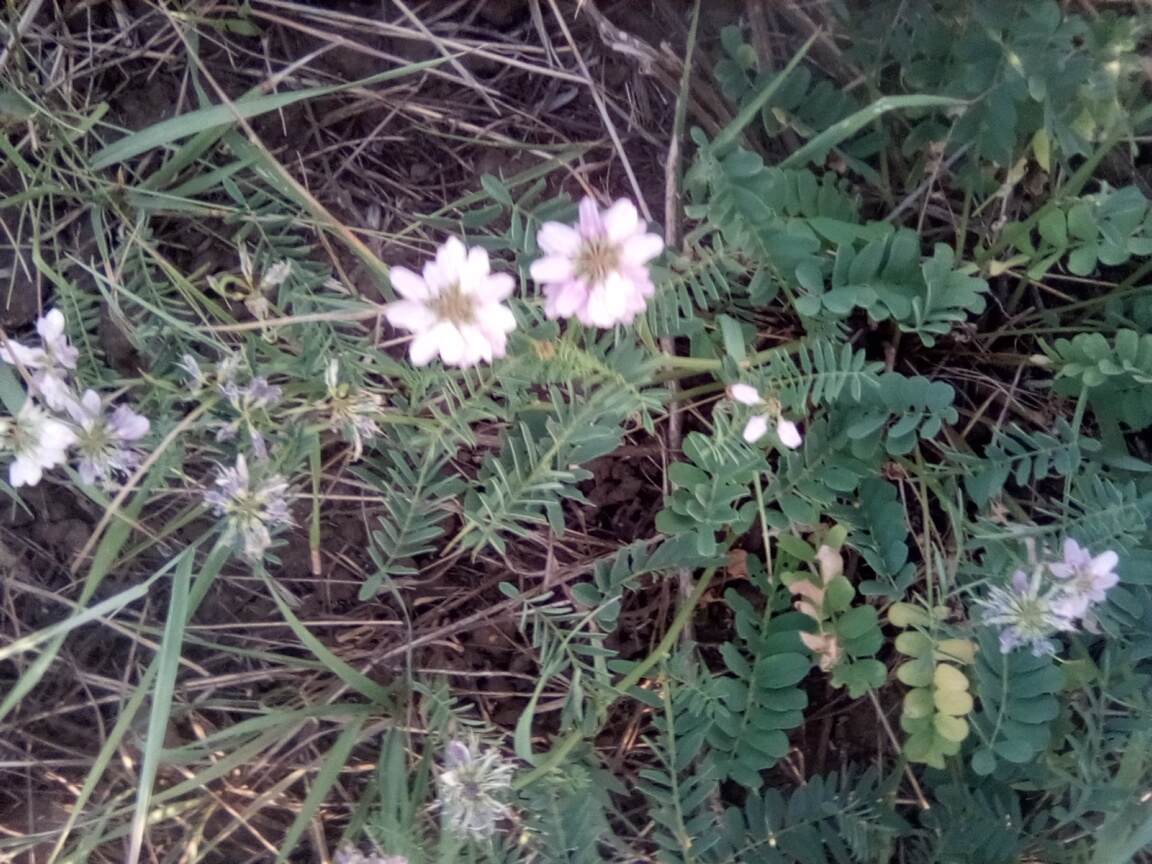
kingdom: Plantae
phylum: Tracheophyta
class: Magnoliopsida
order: Fabales
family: Fabaceae
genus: Coronilla
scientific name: Coronilla varia
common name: Crownvetch
